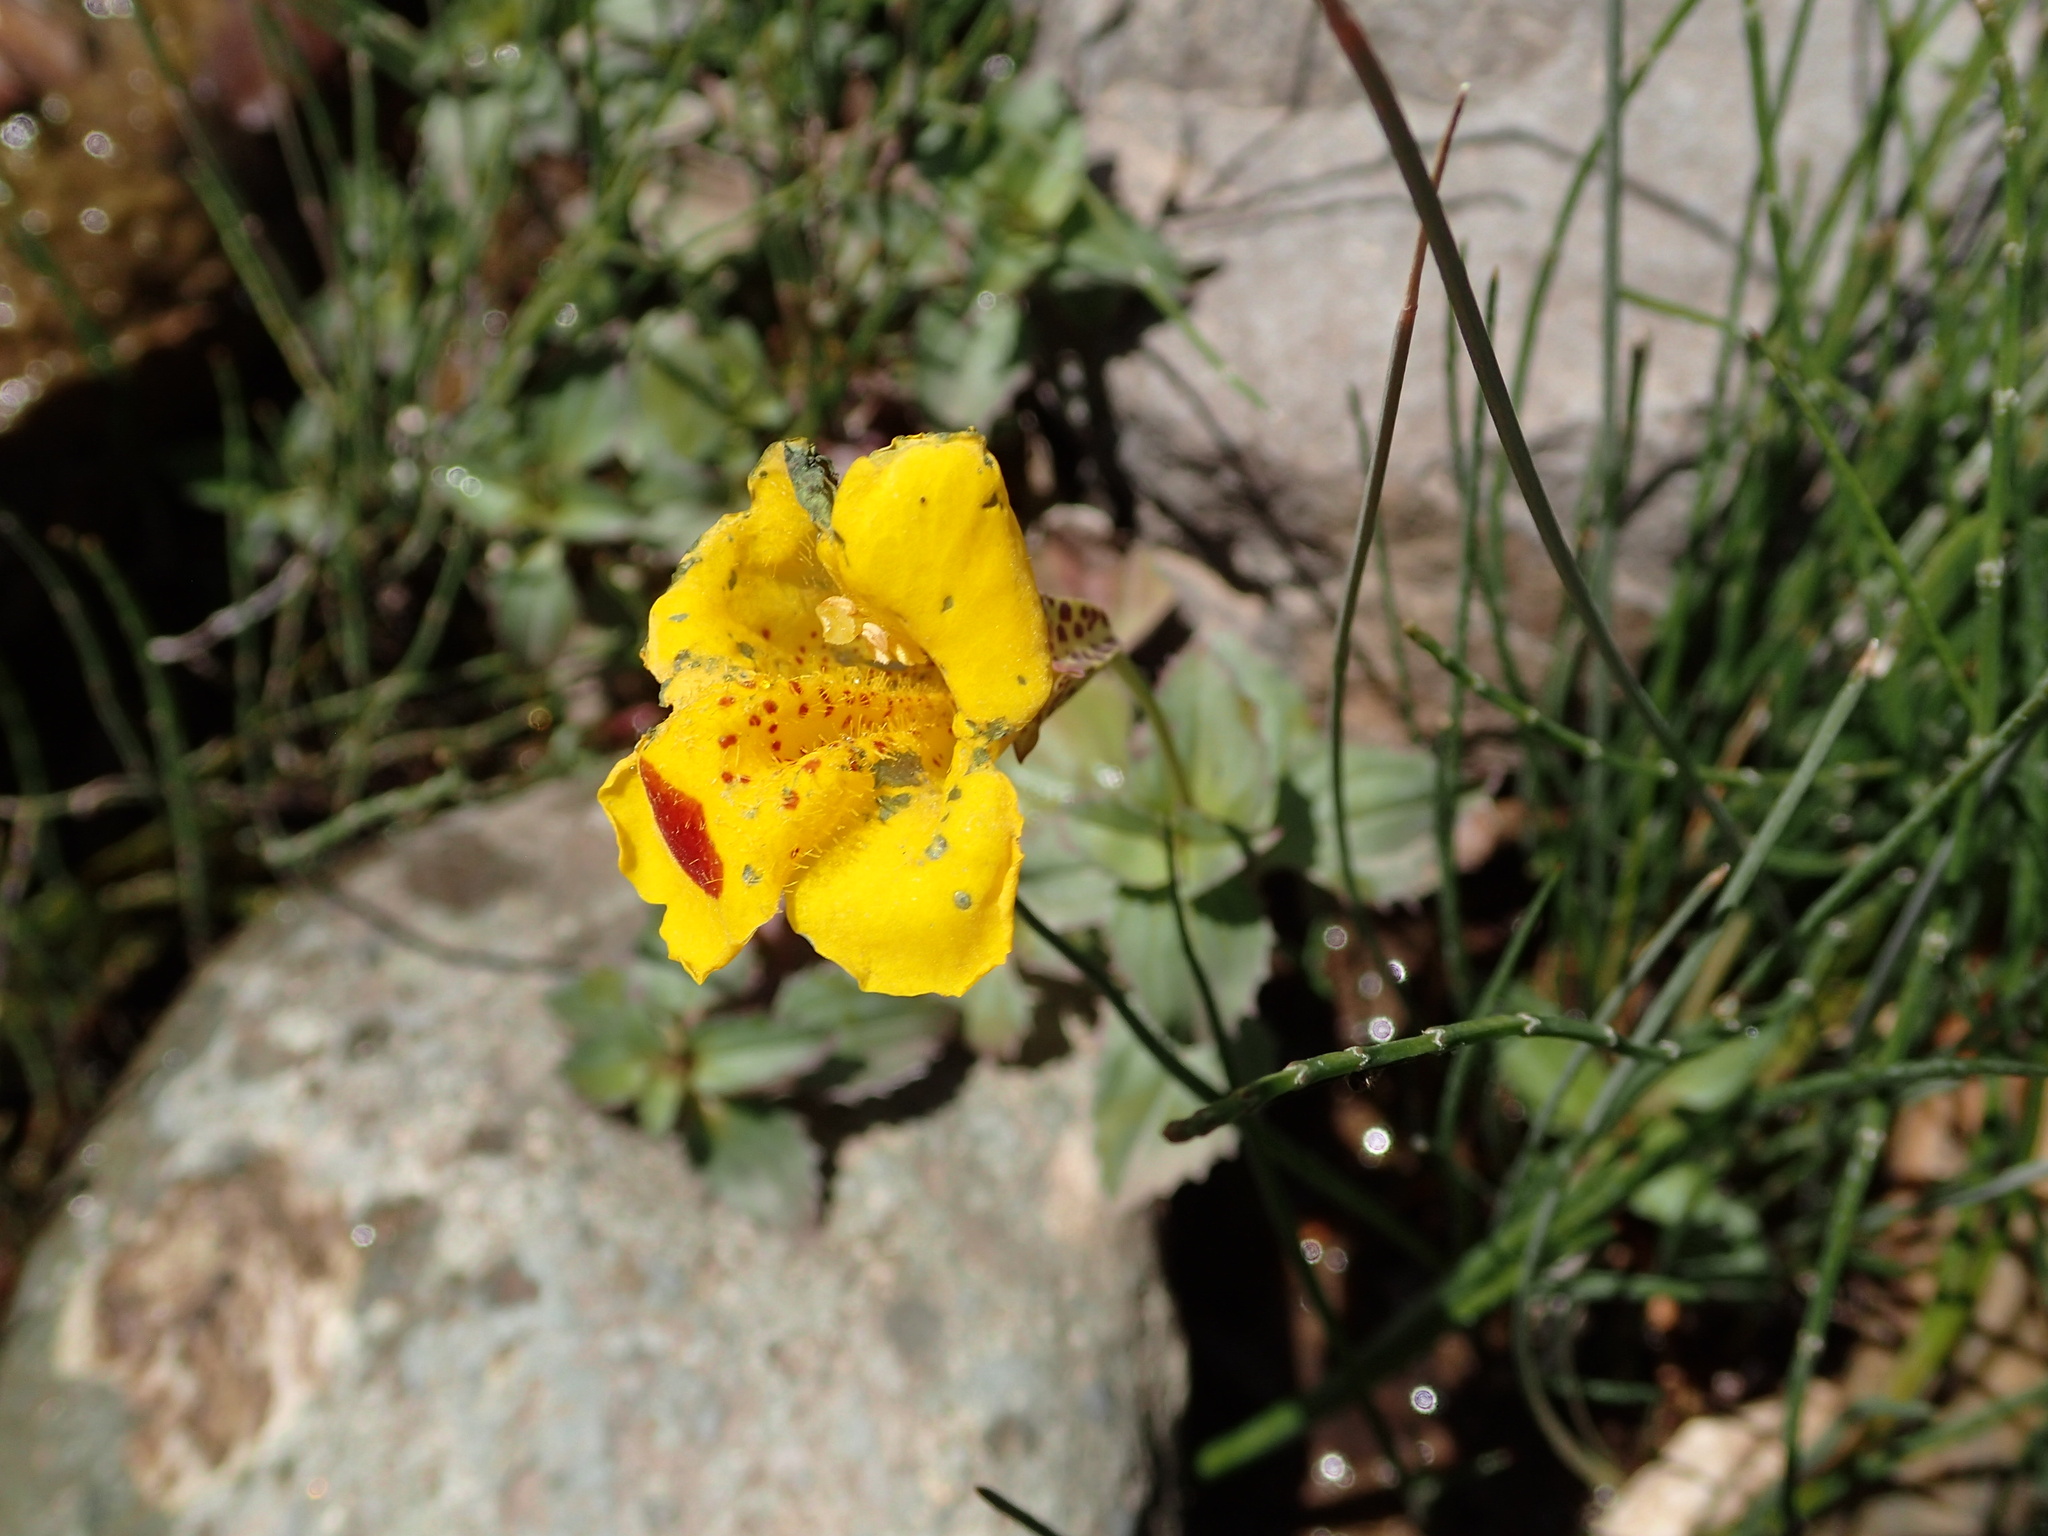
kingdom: Plantae
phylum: Tracheophyta
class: Magnoliopsida
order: Lamiales
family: Phrymaceae
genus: Erythranthe
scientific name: Erythranthe lutea
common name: Yellow monkey-flower
